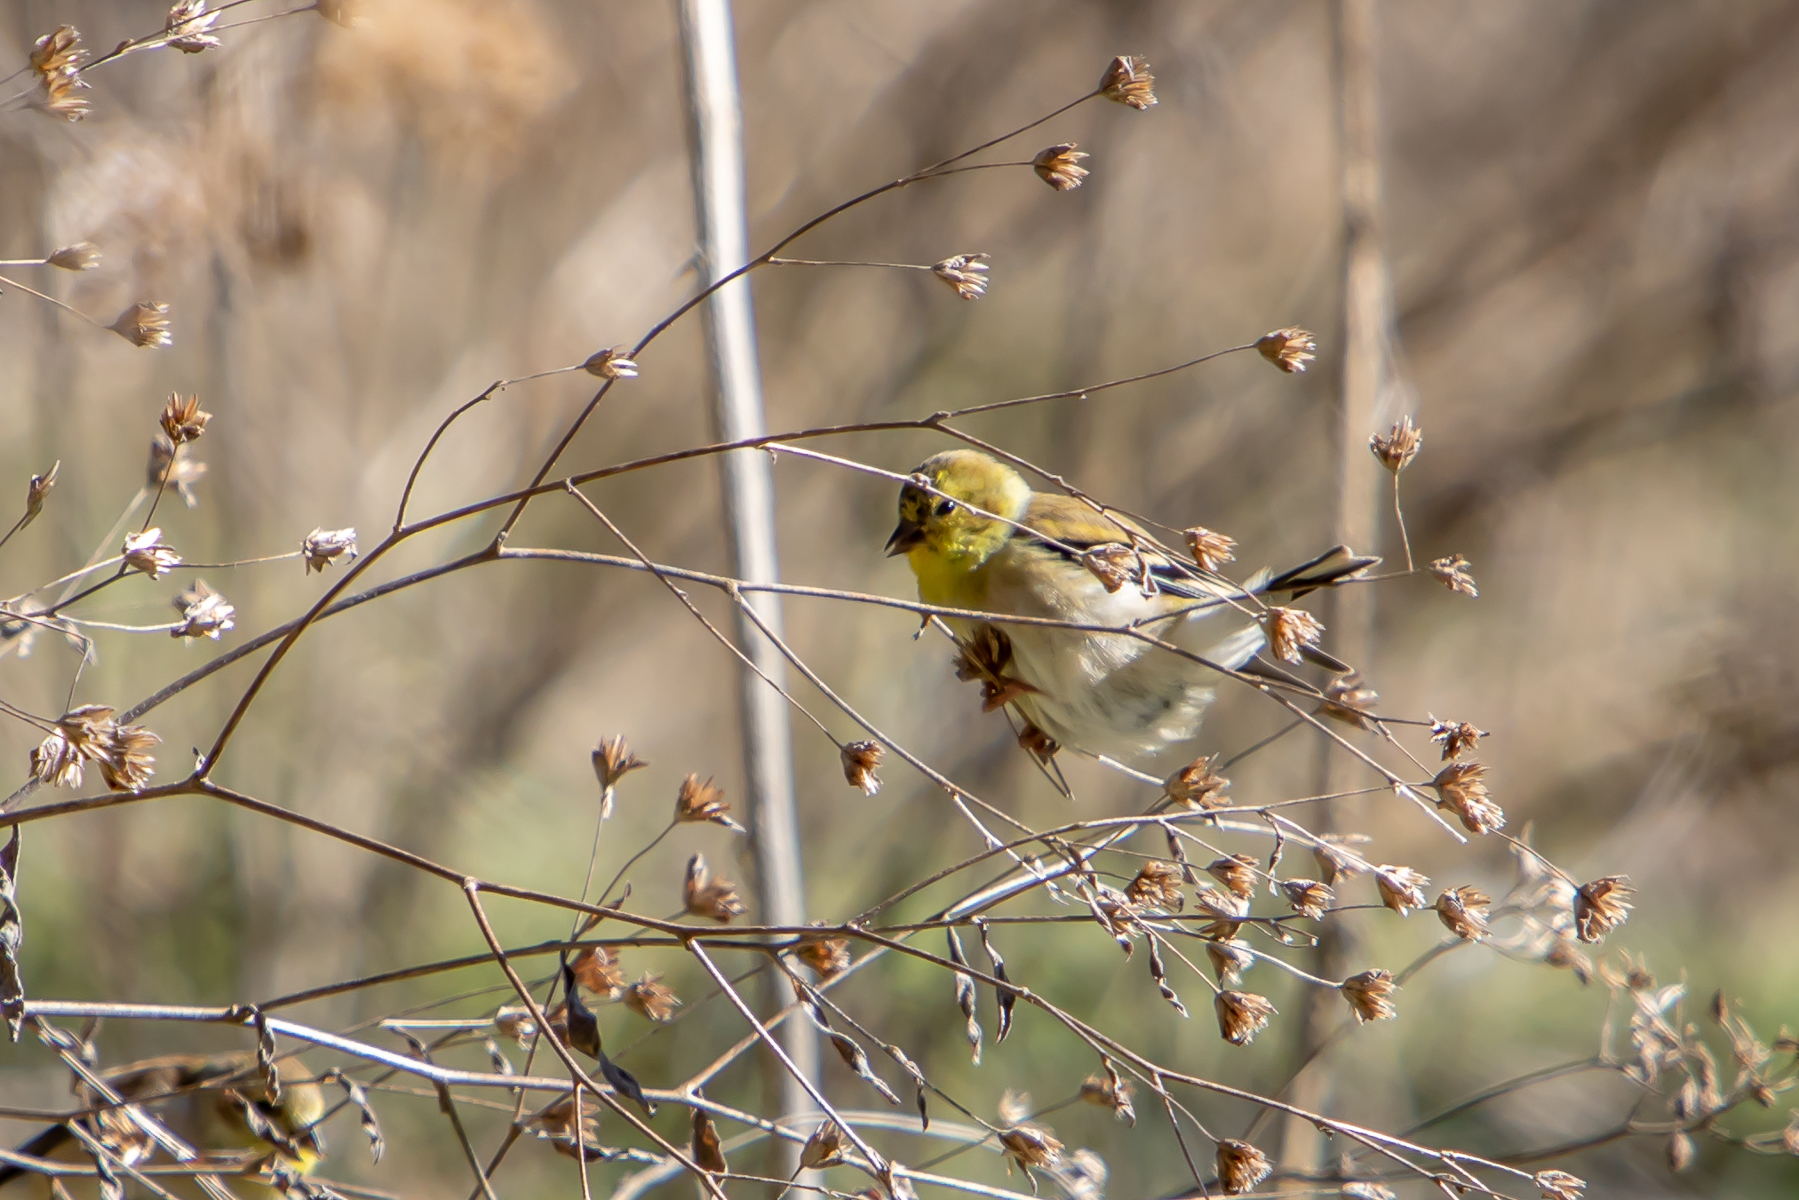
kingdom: Animalia
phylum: Chordata
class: Aves
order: Passeriformes
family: Fringillidae
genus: Spinus
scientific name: Spinus tristis
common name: American goldfinch
